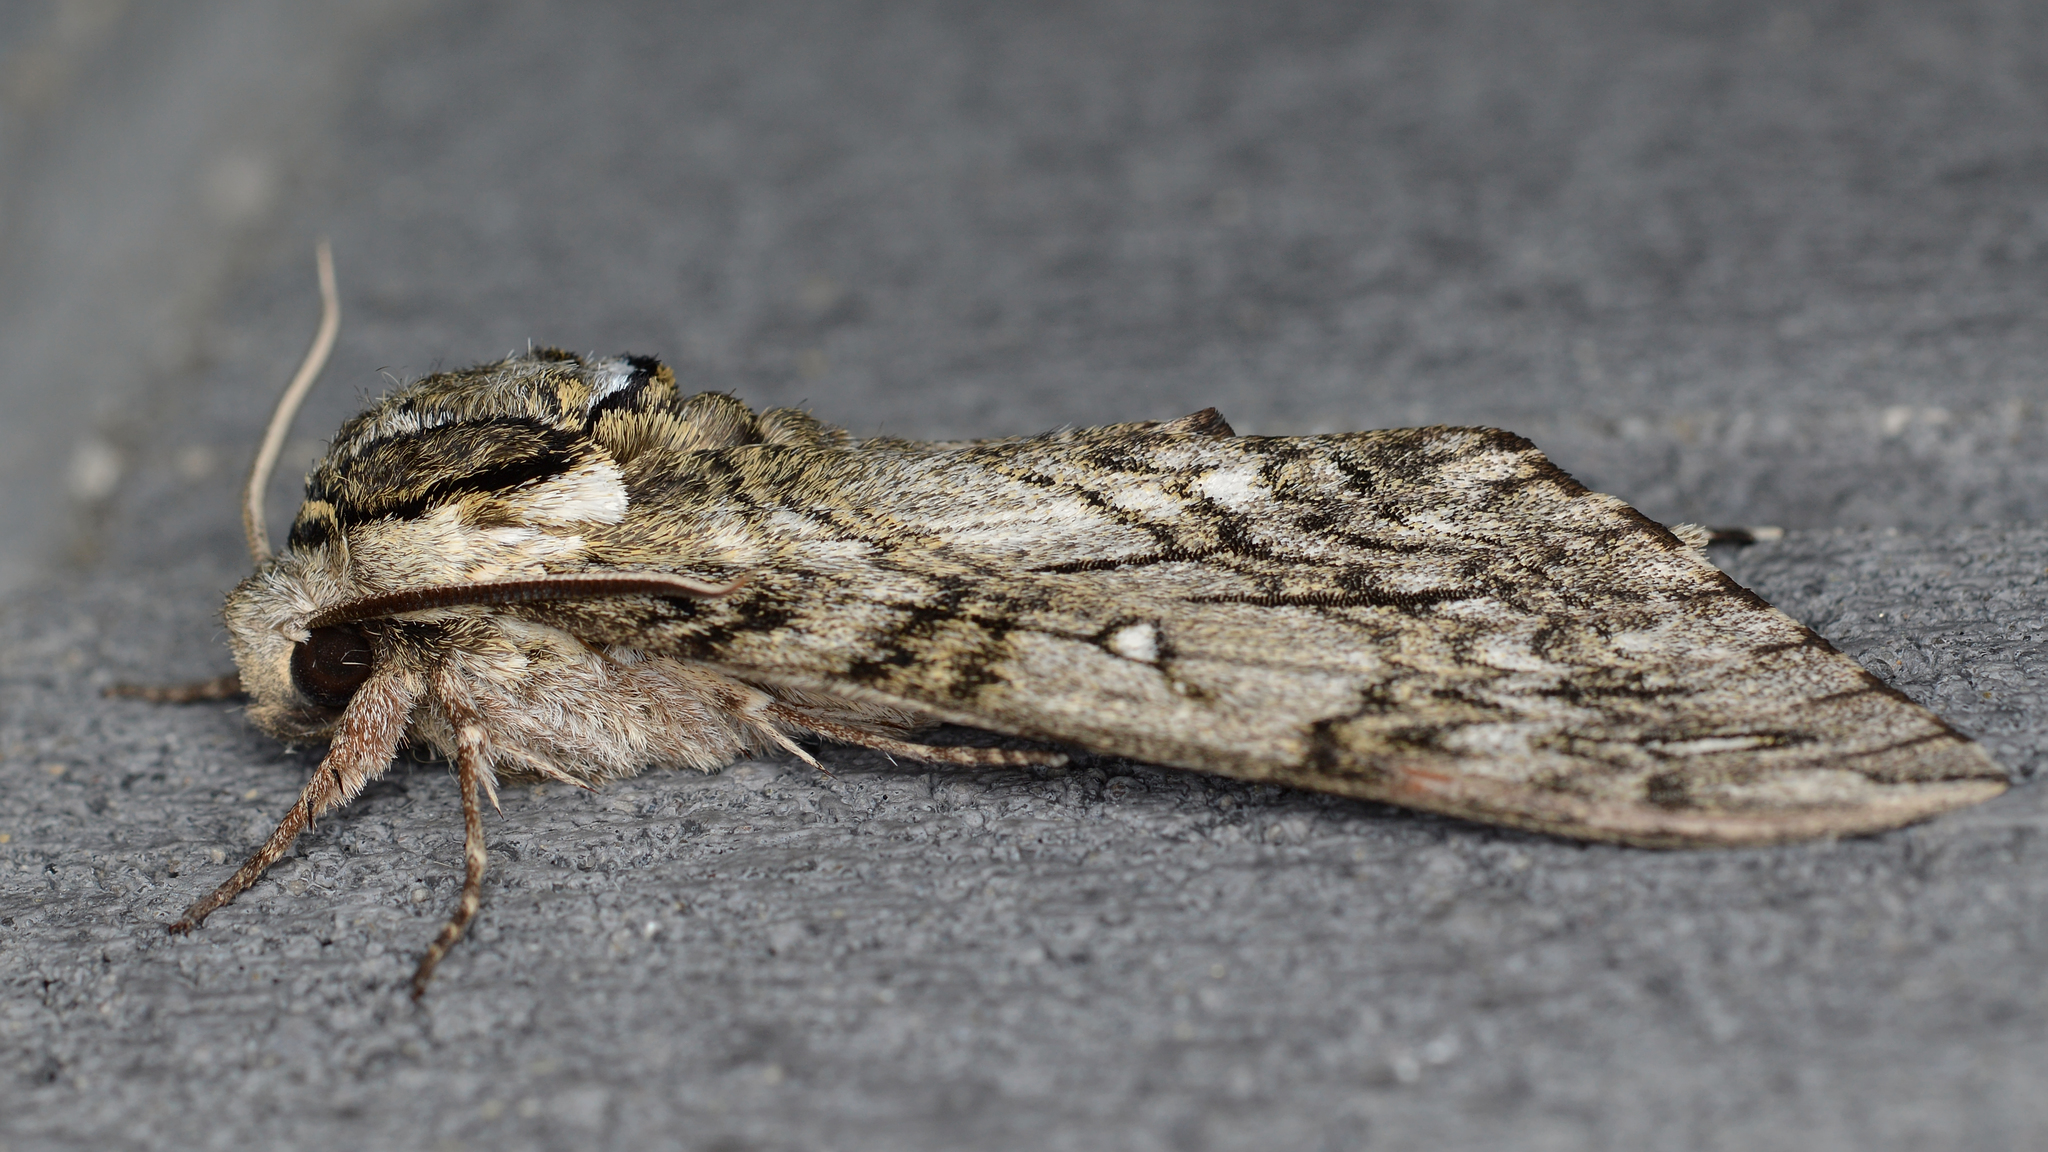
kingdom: Animalia
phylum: Arthropoda
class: Insecta
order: Lepidoptera
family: Sphingidae
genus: Ceratomia
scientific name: Ceratomia undulosa
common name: Waved sphinx
